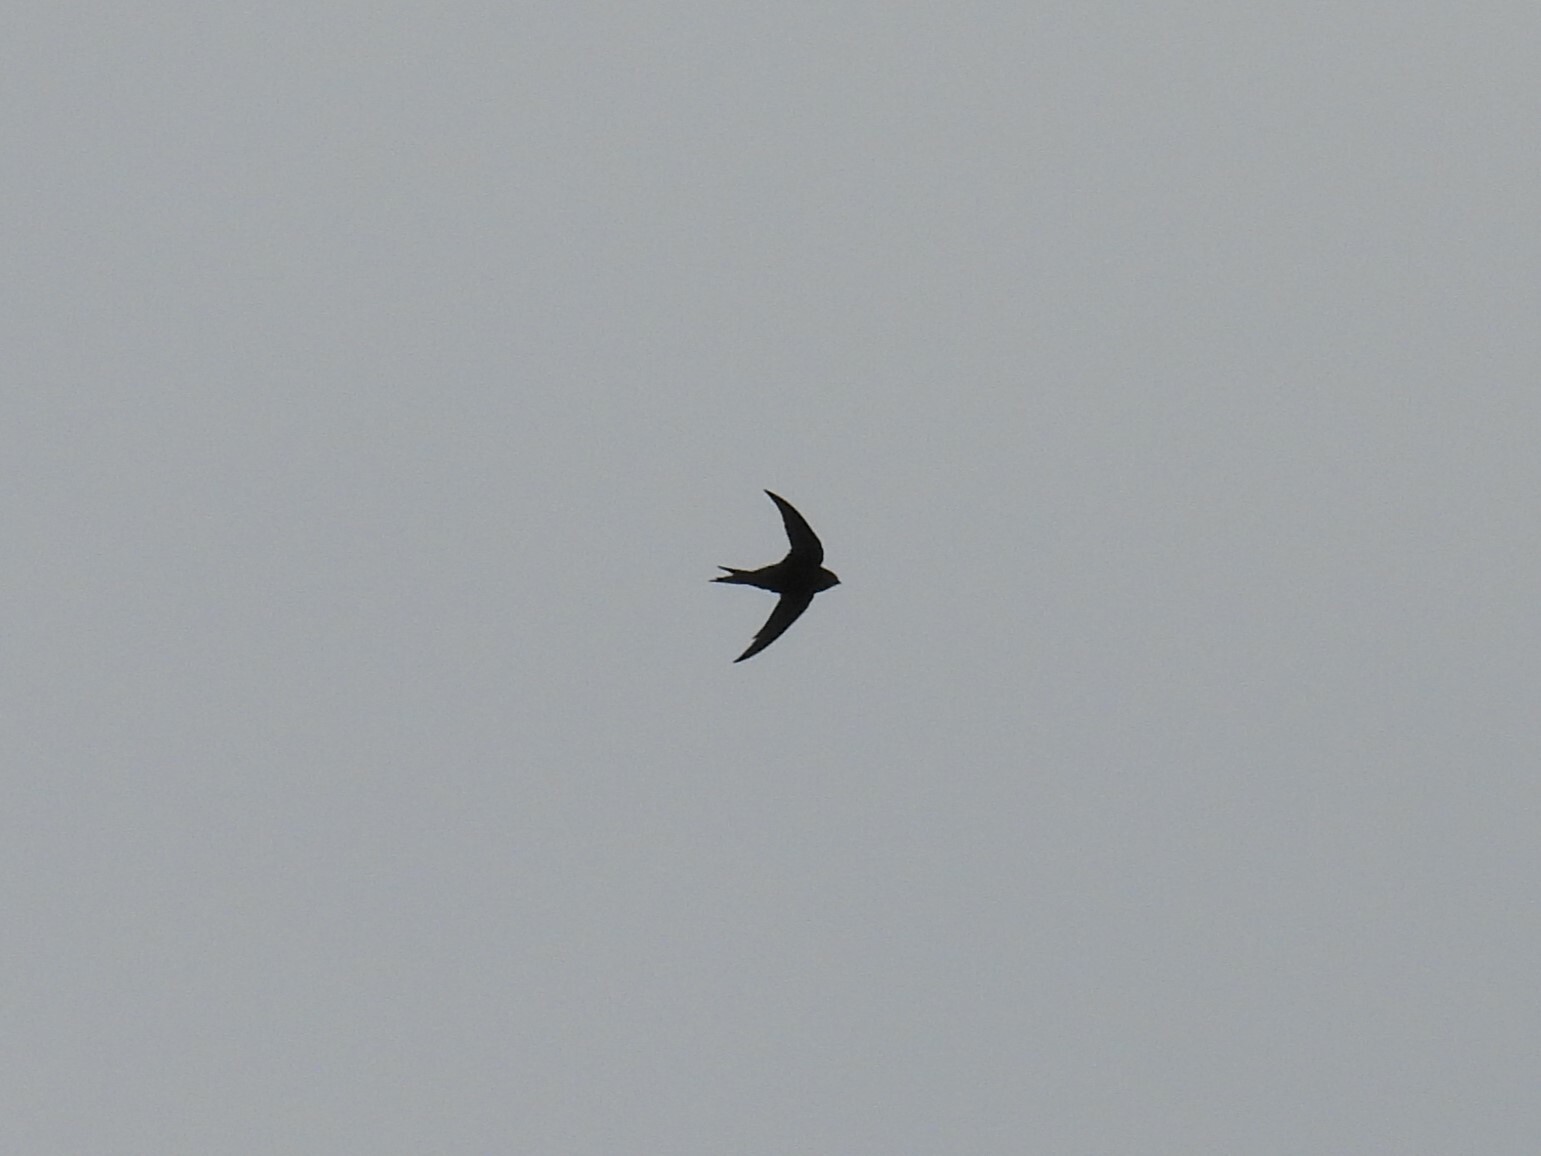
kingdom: Animalia
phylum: Chordata
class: Aves
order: Apodiformes
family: Apodidae
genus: Apus
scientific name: Apus apus
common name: Common swift
